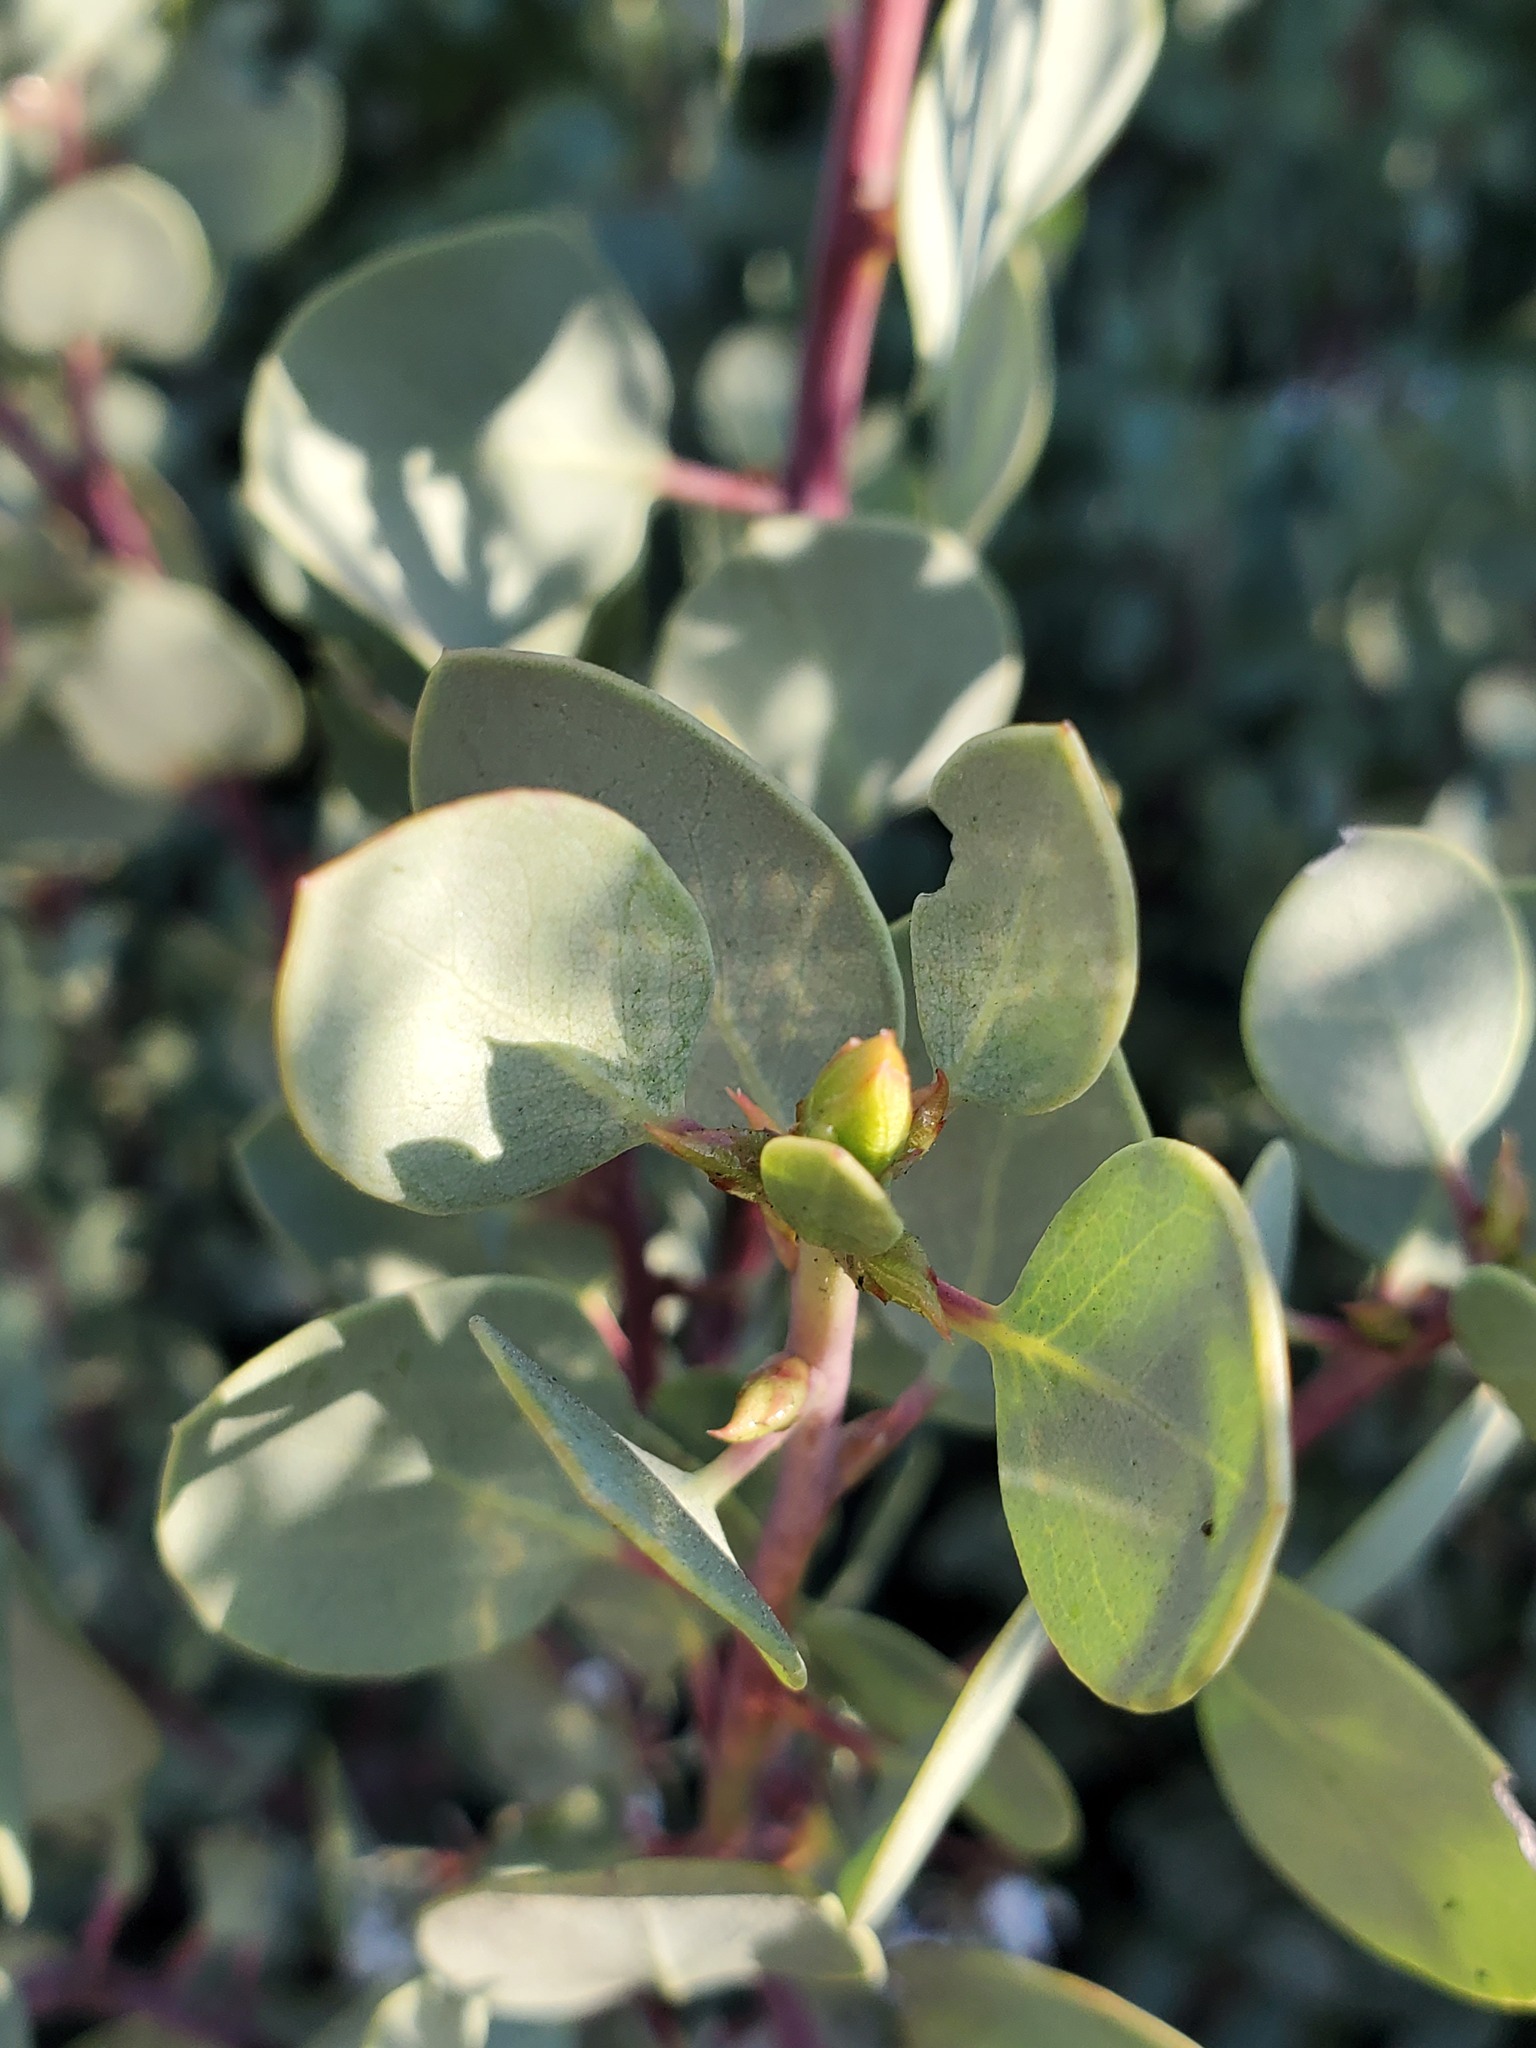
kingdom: Plantae
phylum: Tracheophyta
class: Magnoliopsida
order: Ericales
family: Ericaceae
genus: Arctostaphylos
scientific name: Arctostaphylos viscida
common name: White-leaf manzanita
